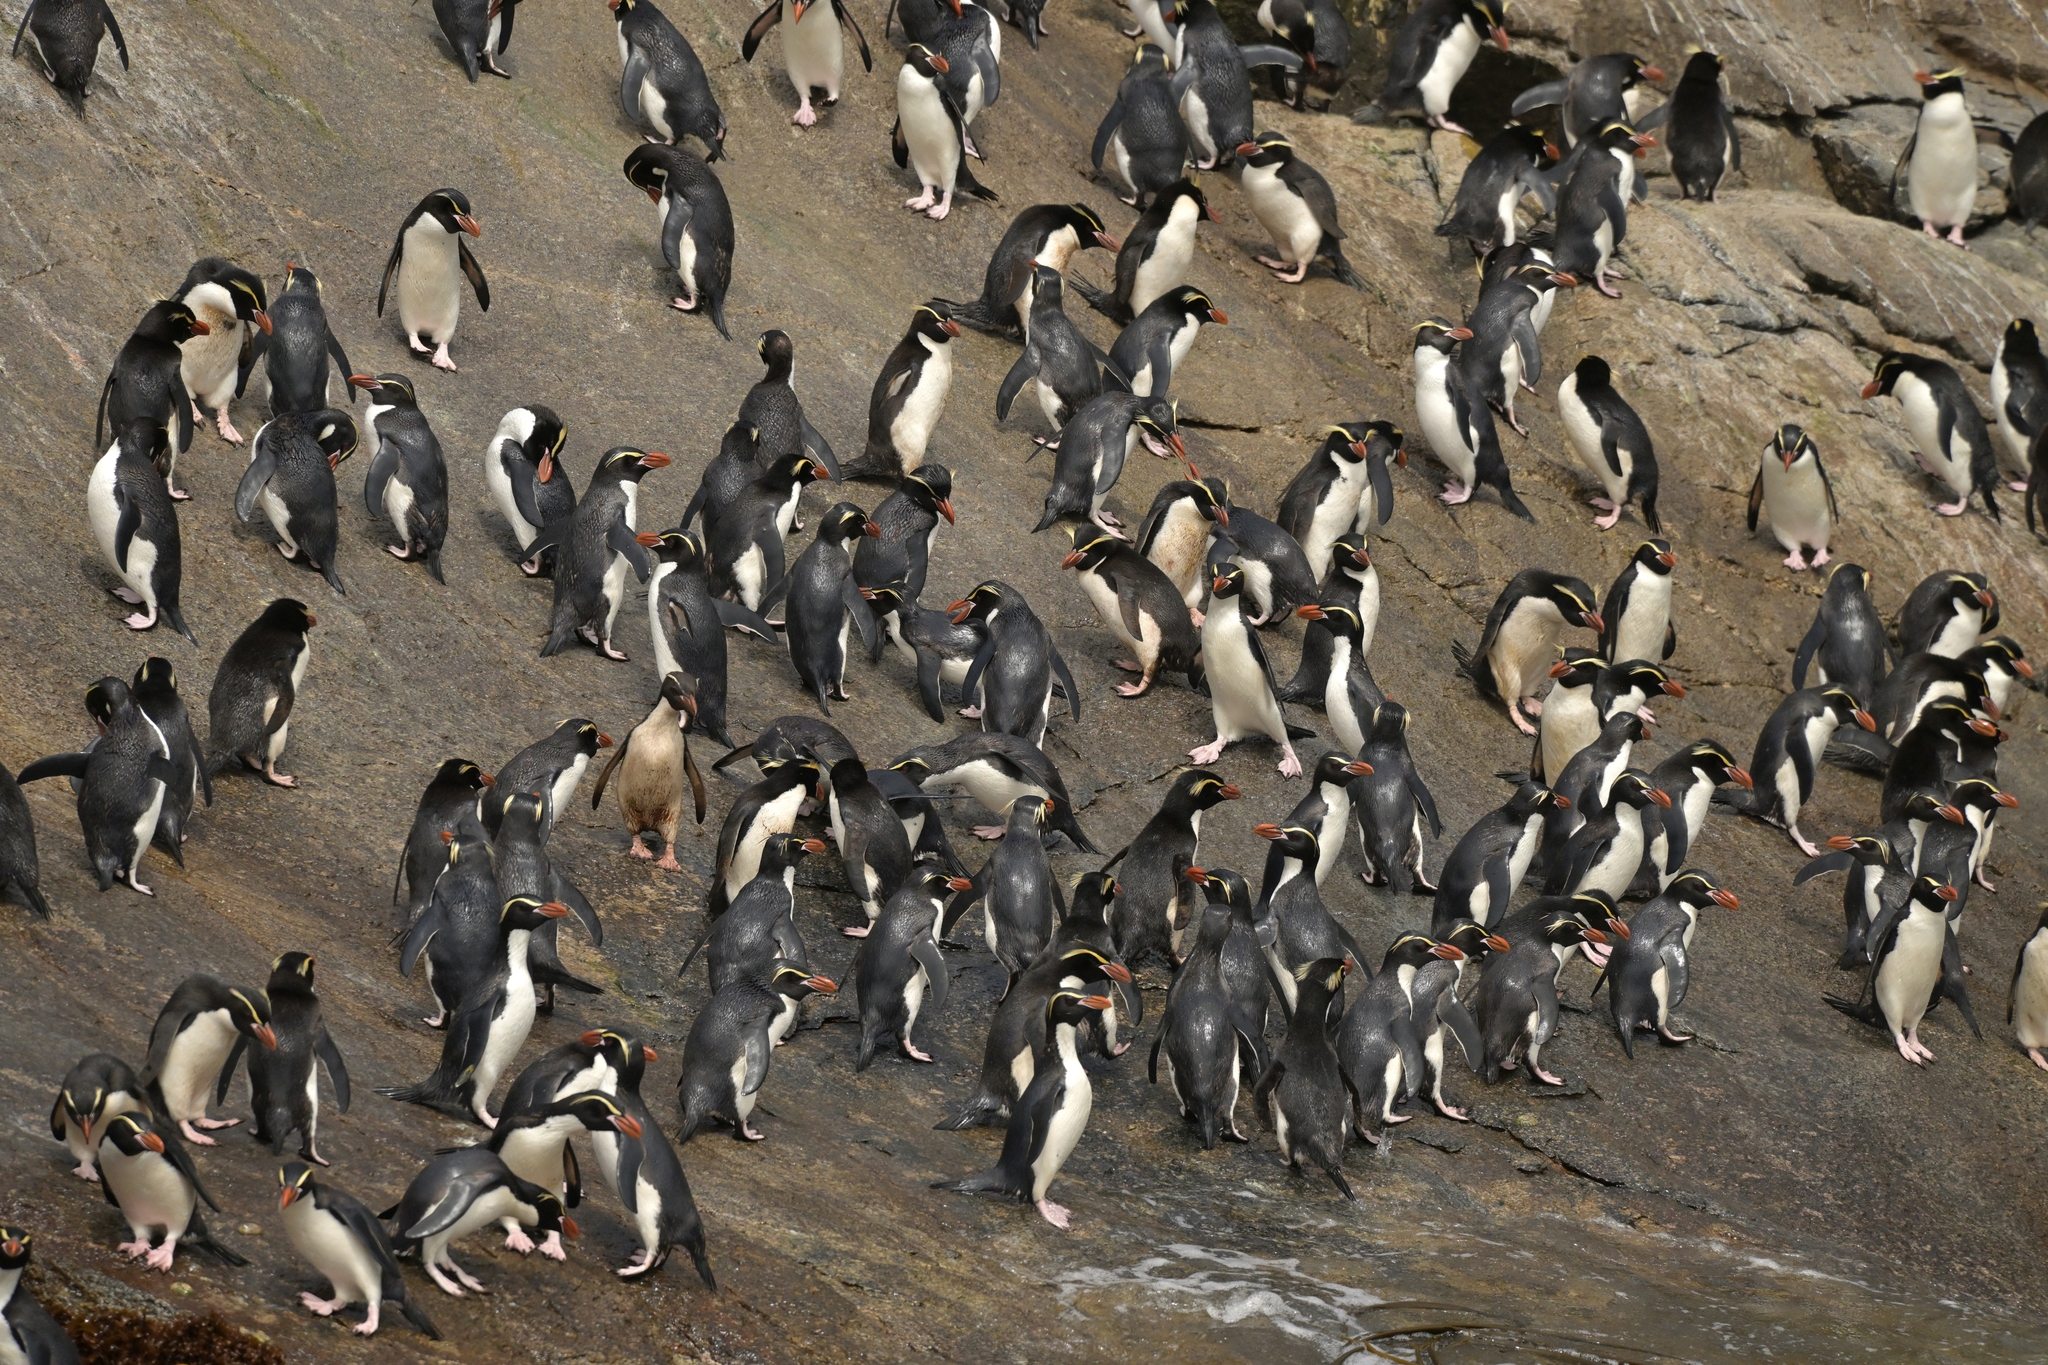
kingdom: Animalia
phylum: Chordata
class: Aves
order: Sphenisciformes
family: Spheniscidae
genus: Eudyptes
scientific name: Eudyptes robustus
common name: Snares penguin
